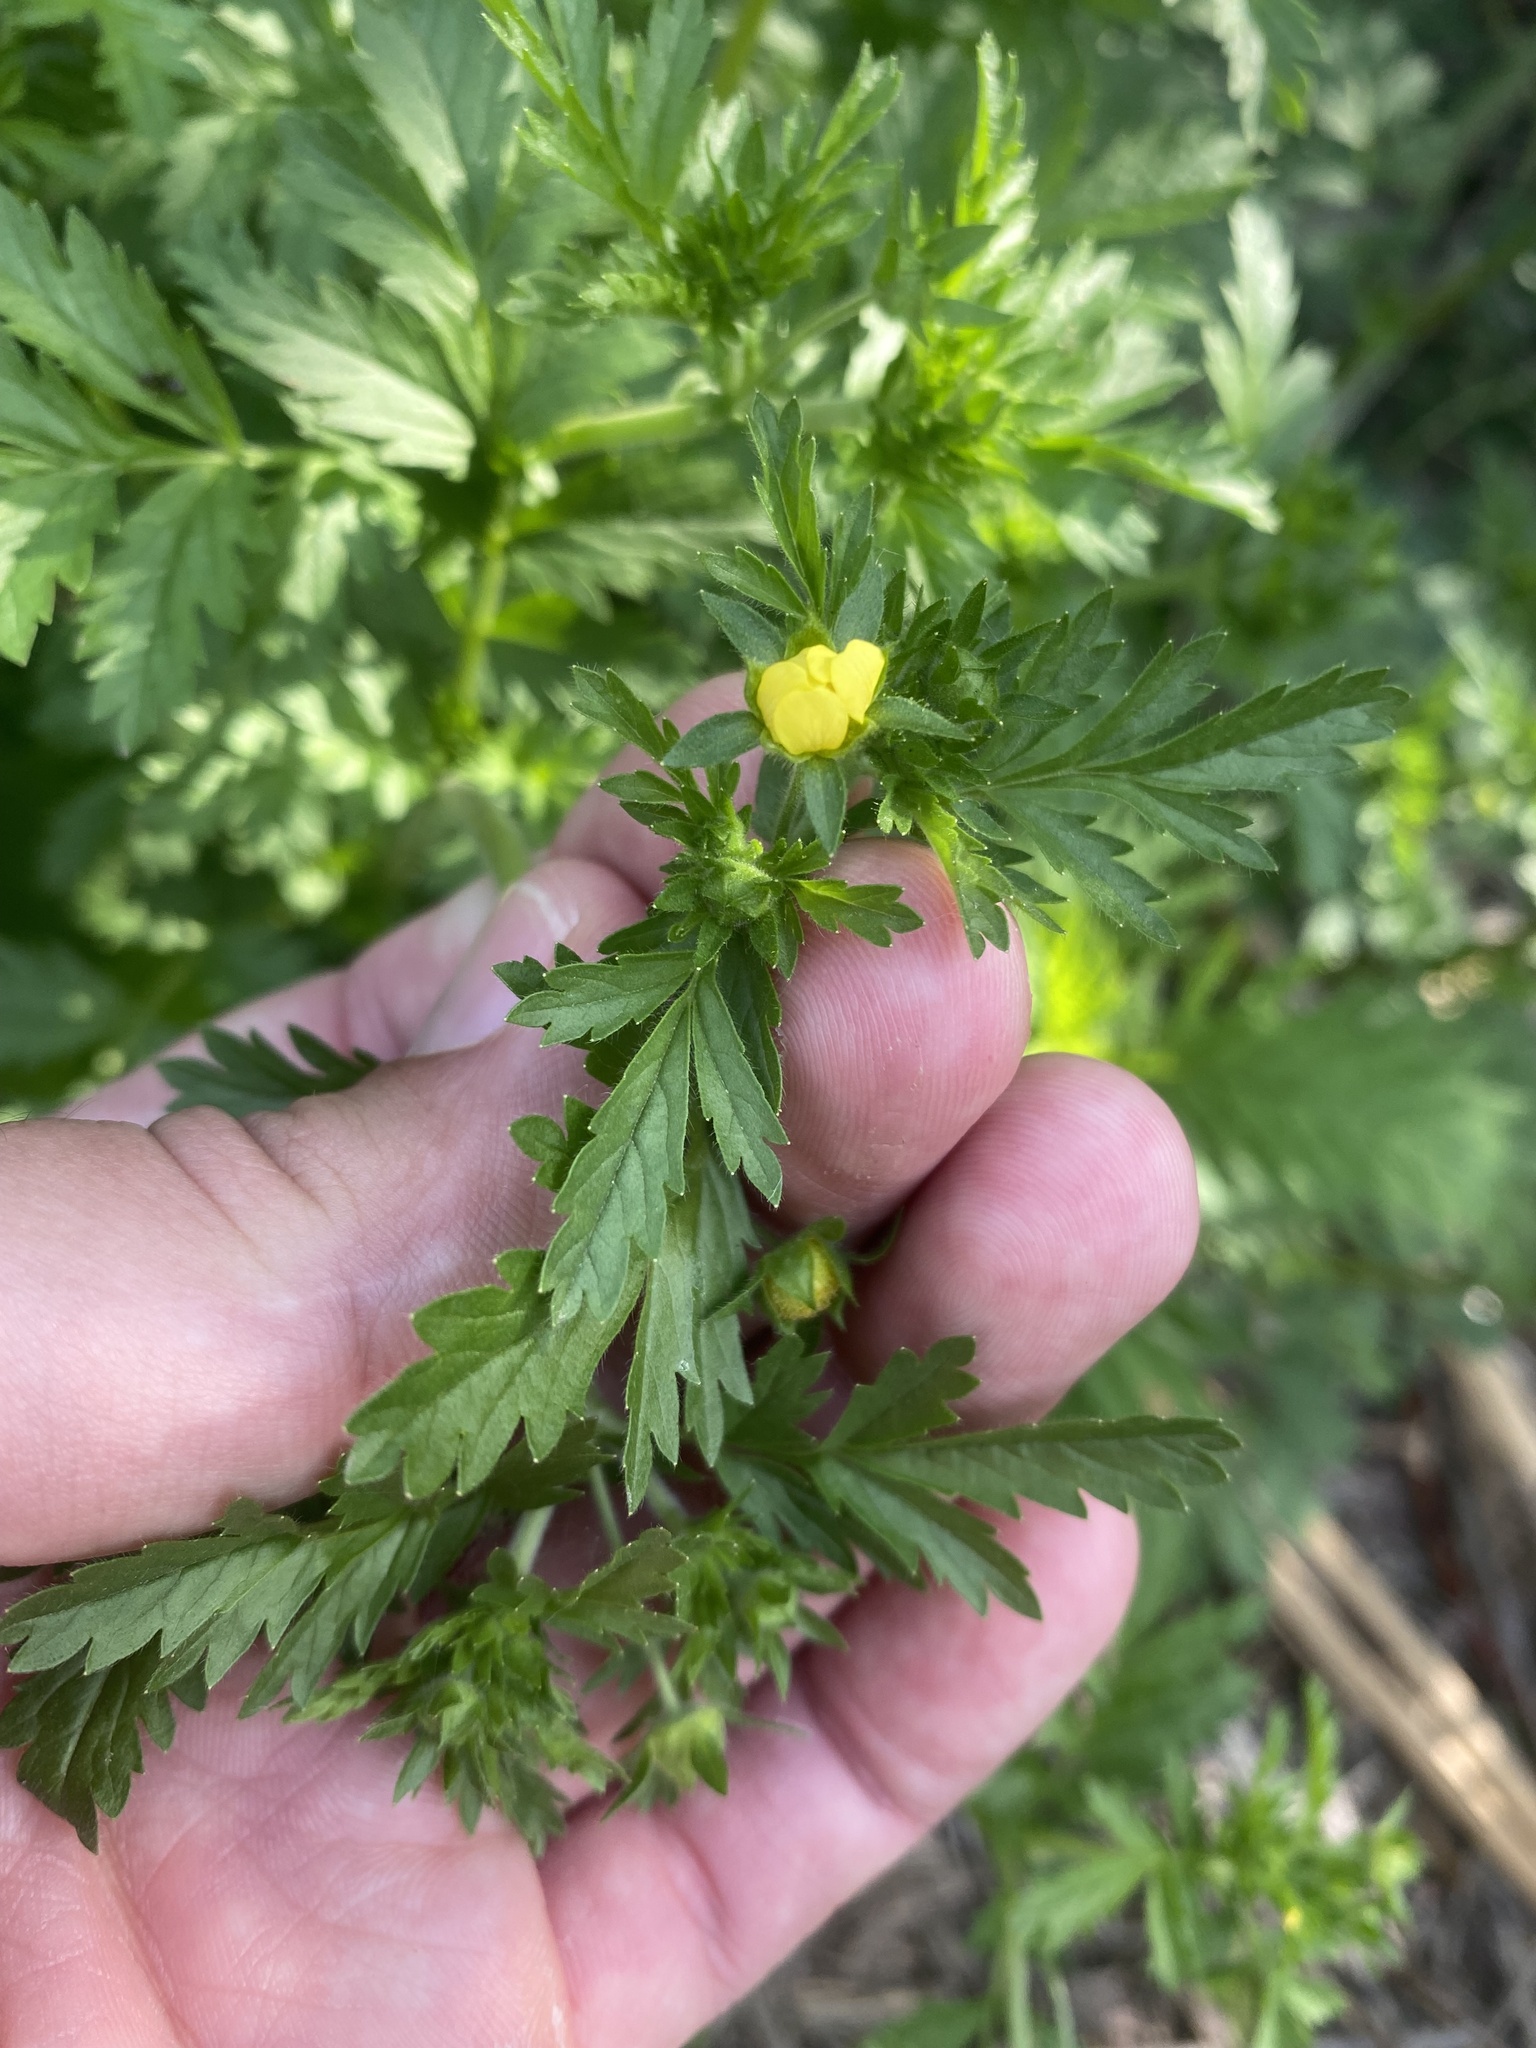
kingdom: Plantae
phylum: Tracheophyta
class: Magnoliopsida
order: Rosales
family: Rosaceae
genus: Potentilla
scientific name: Potentilla supina
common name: Prostrate cinquefoil
